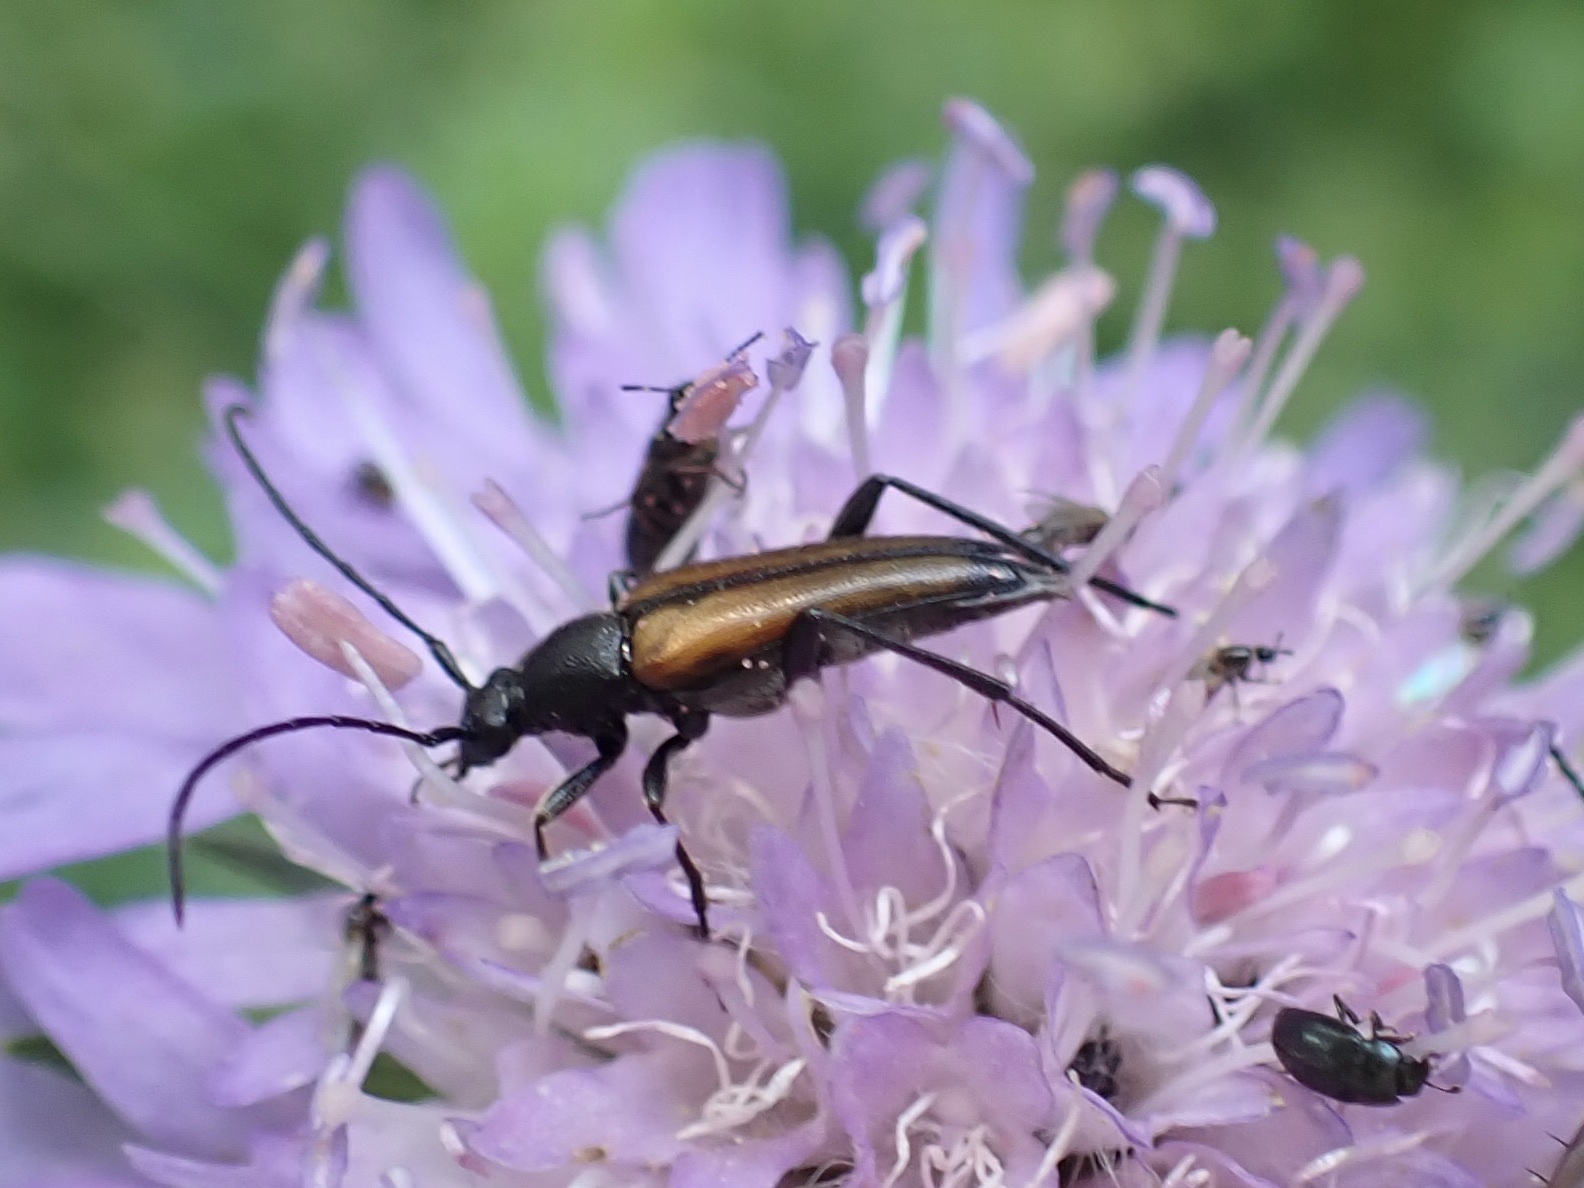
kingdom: Animalia
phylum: Arthropoda
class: Insecta
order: Coleoptera
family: Cerambycidae
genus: Stenurella
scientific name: Stenurella melanura
